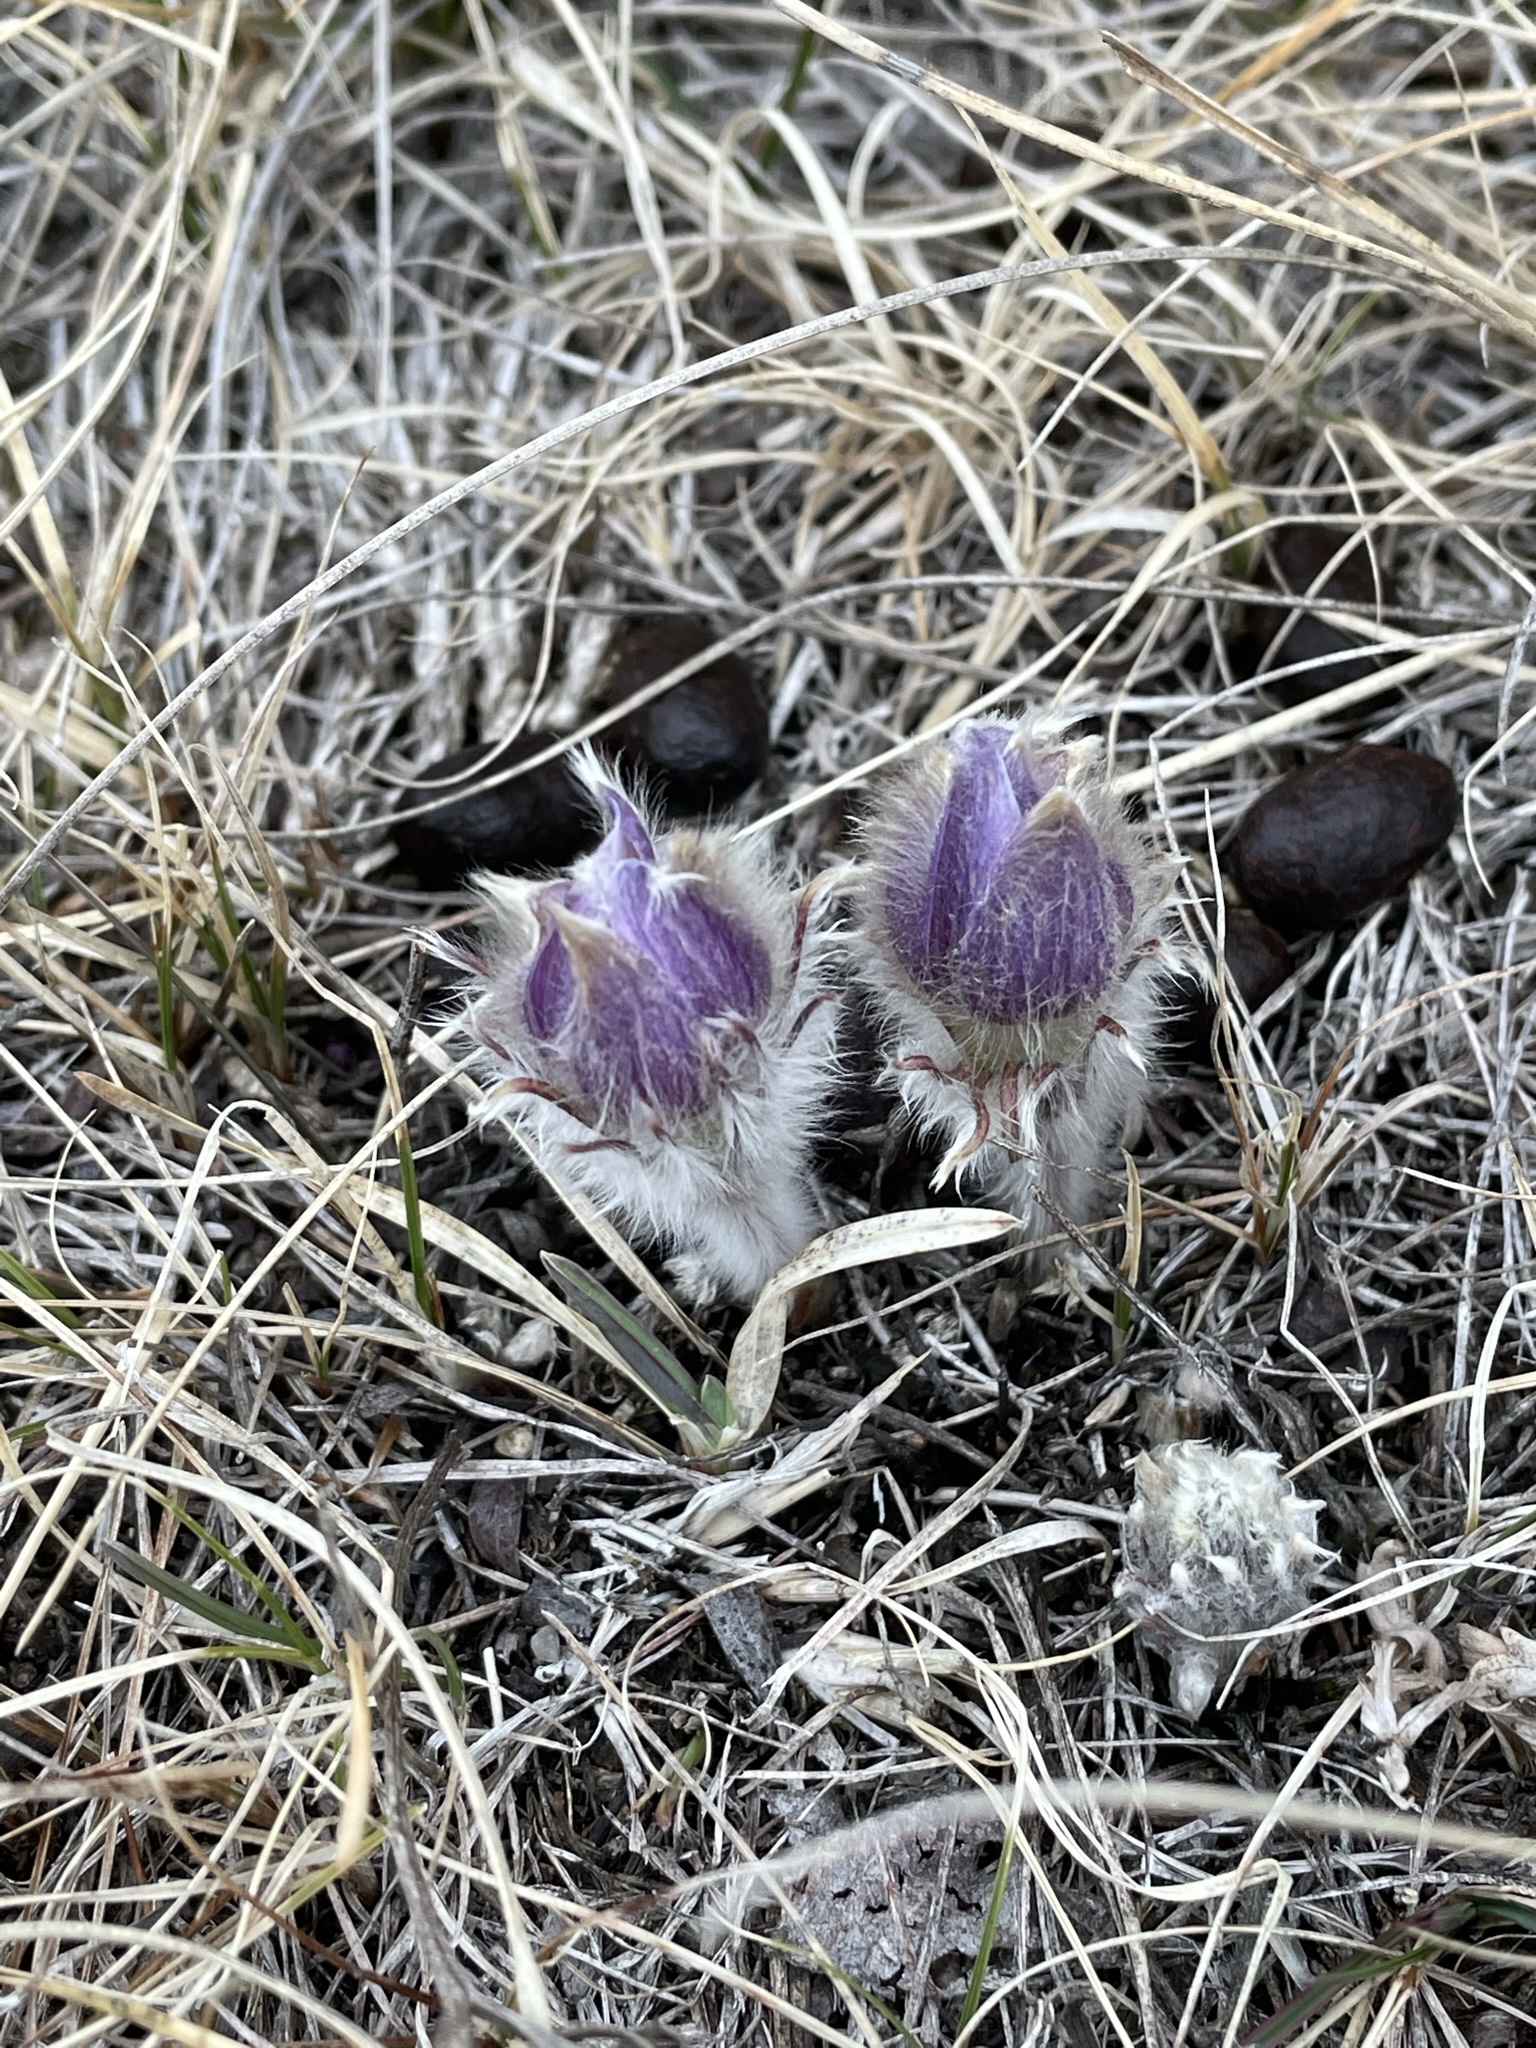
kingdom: Plantae
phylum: Tracheophyta
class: Magnoliopsida
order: Ranunculales
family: Ranunculaceae
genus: Pulsatilla
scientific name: Pulsatilla nuttalliana
